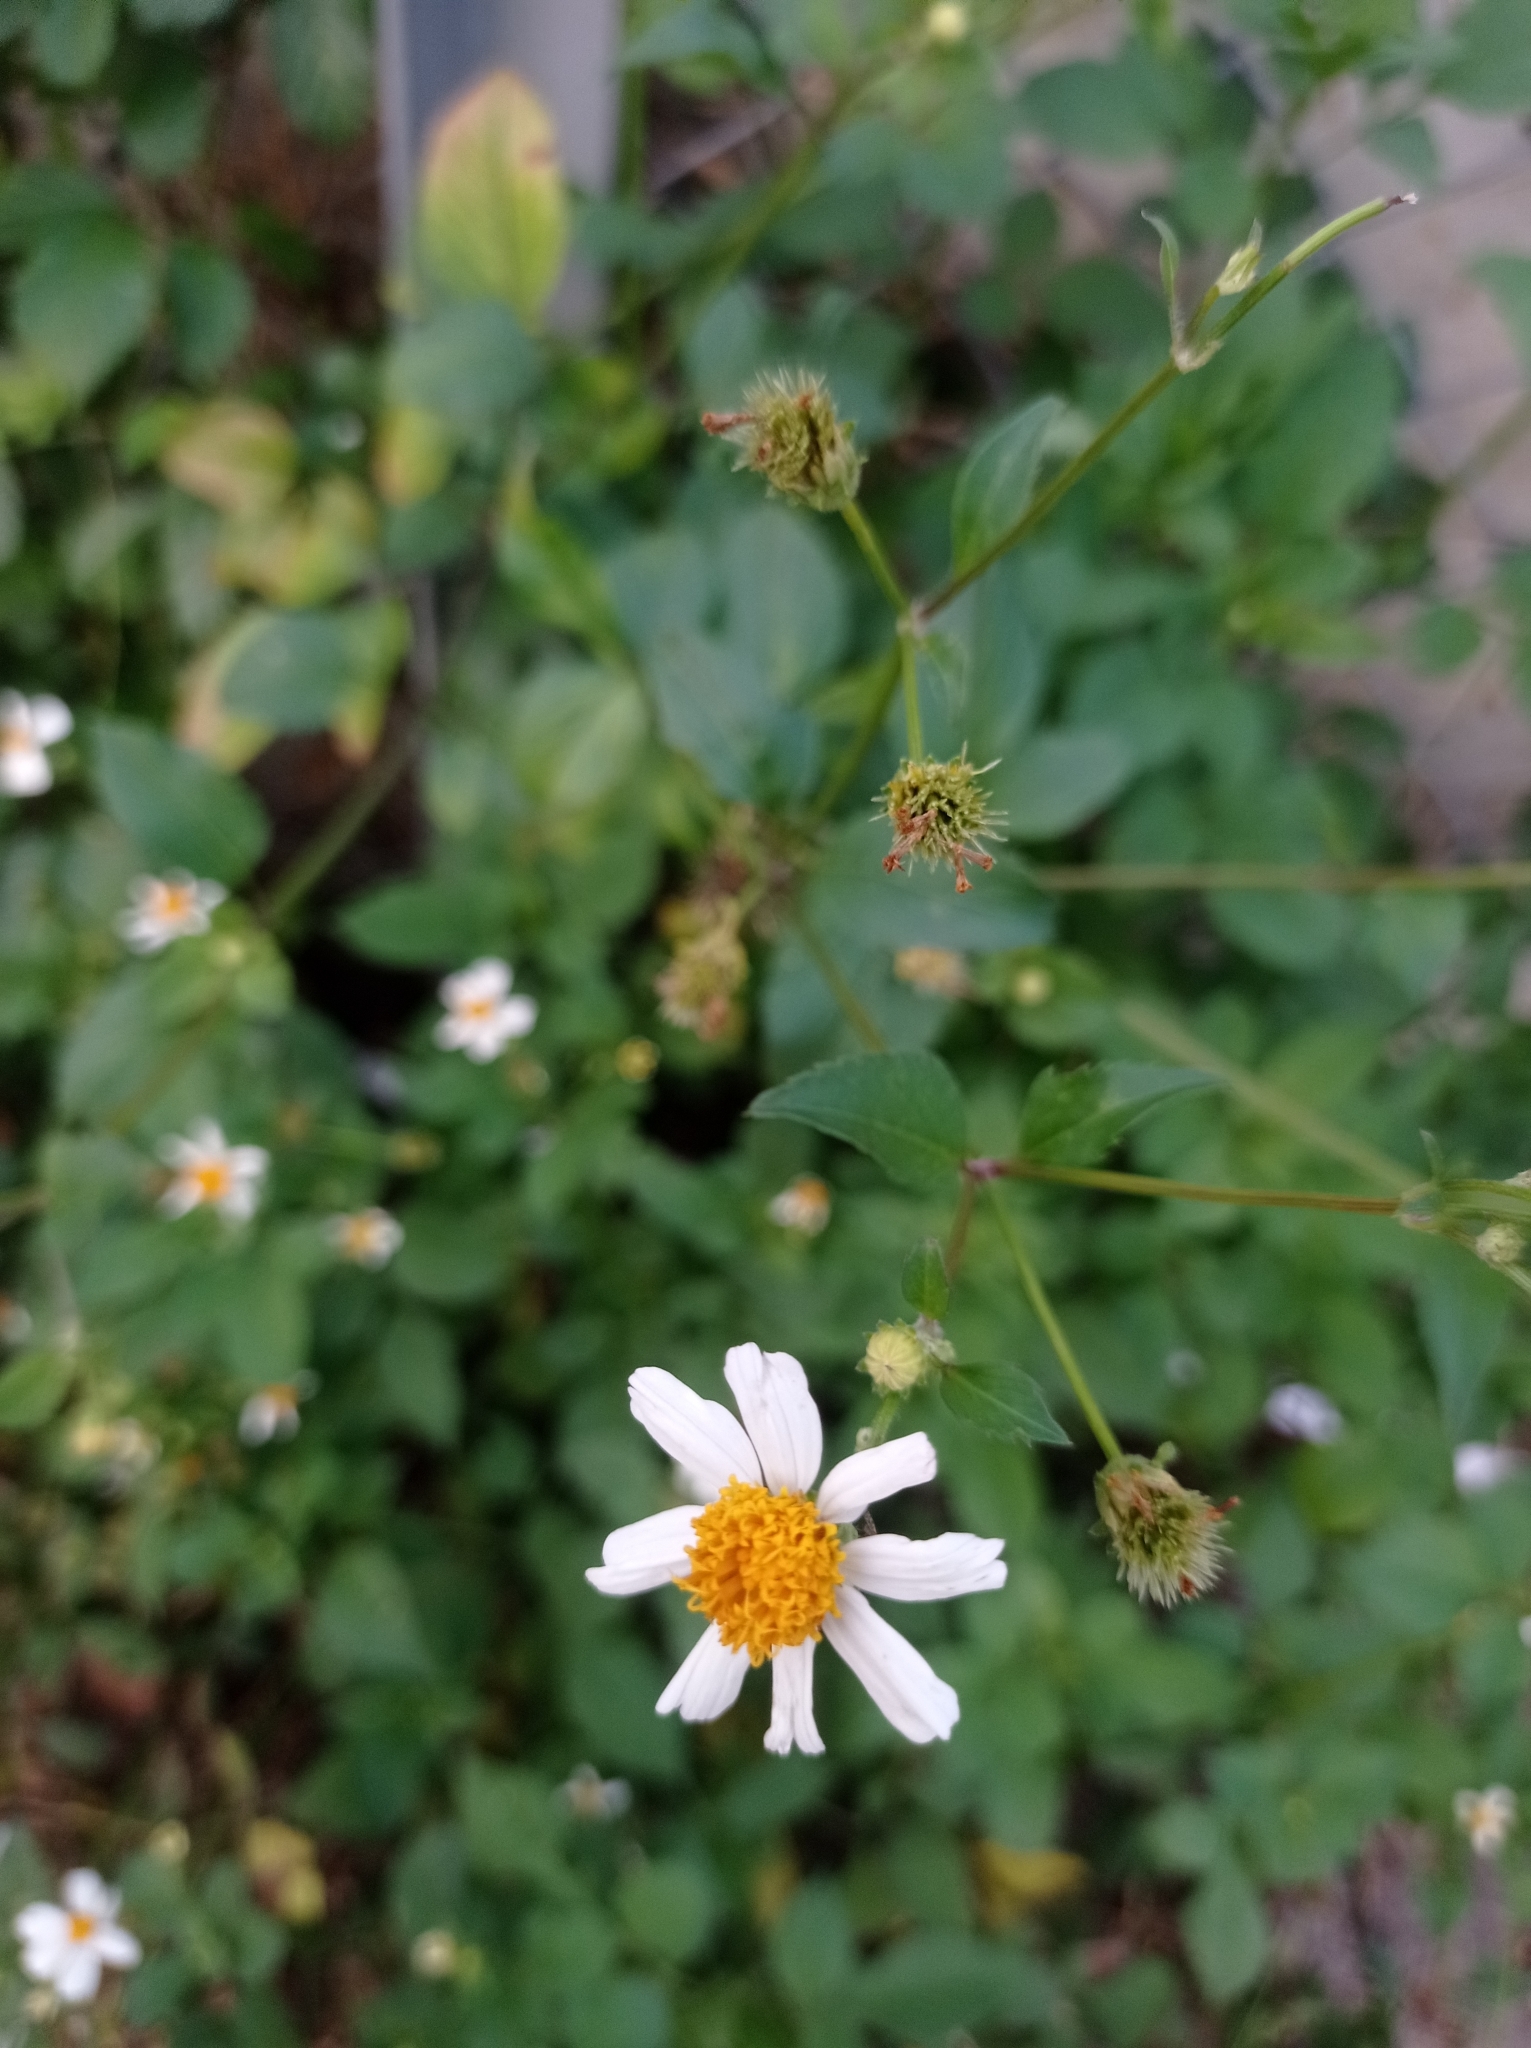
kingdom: Plantae
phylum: Tracheophyta
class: Magnoliopsida
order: Asterales
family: Asteraceae
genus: Bidens
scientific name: Bidens alba
